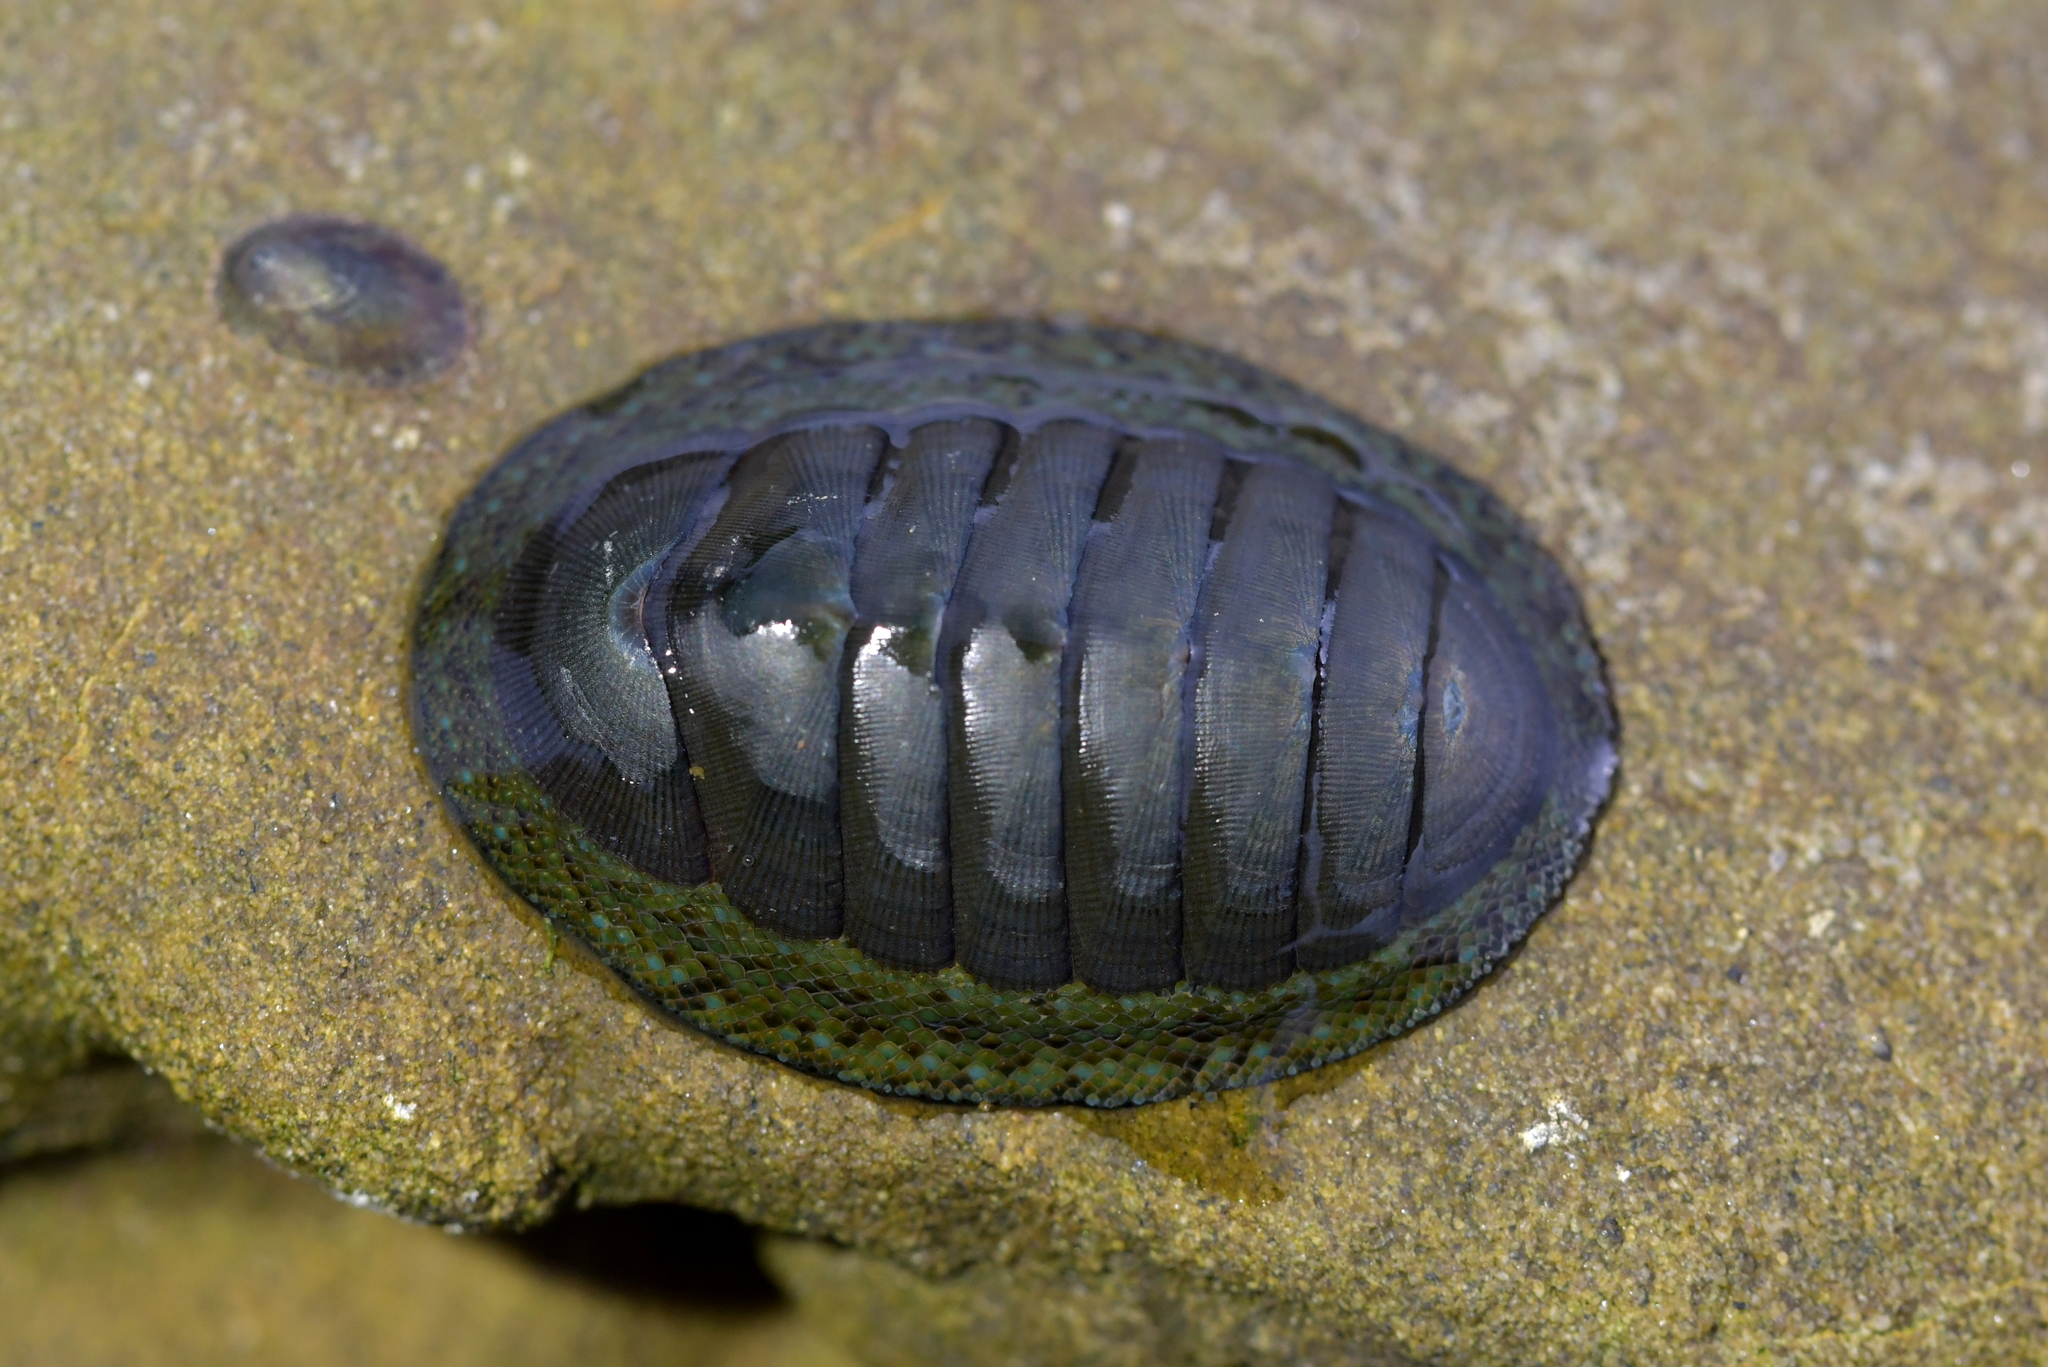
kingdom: Animalia
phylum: Mollusca
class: Polyplacophora
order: Chitonida
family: Chitonidae
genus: Chiton
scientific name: Chiton glaucus
